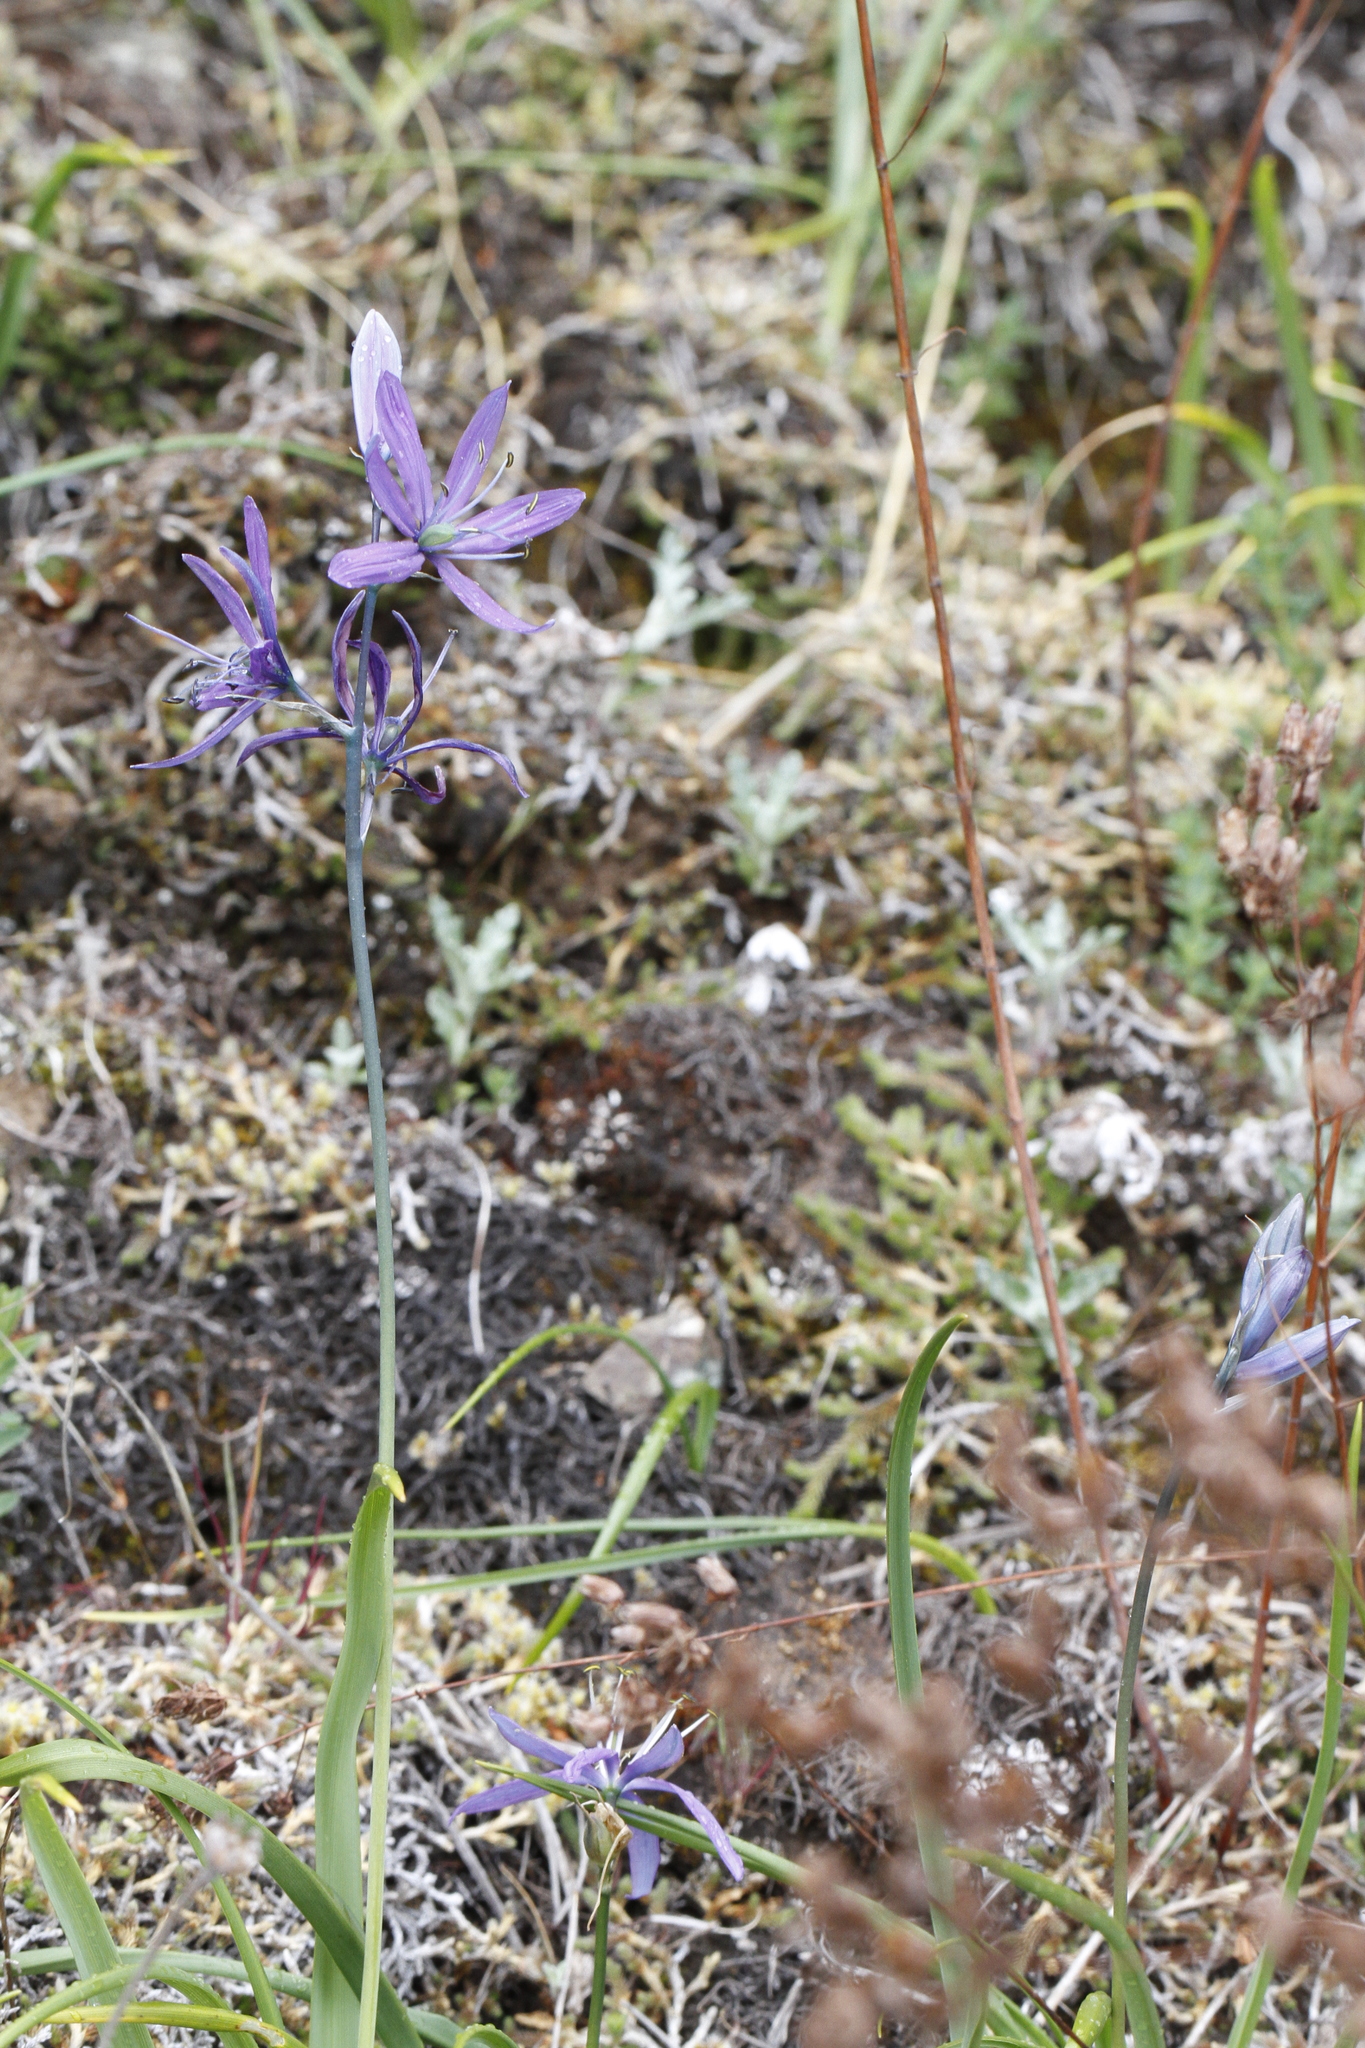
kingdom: Plantae
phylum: Tracheophyta
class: Liliopsida
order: Asparagales
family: Asparagaceae
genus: Camassia
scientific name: Camassia quamash
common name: Common camas
